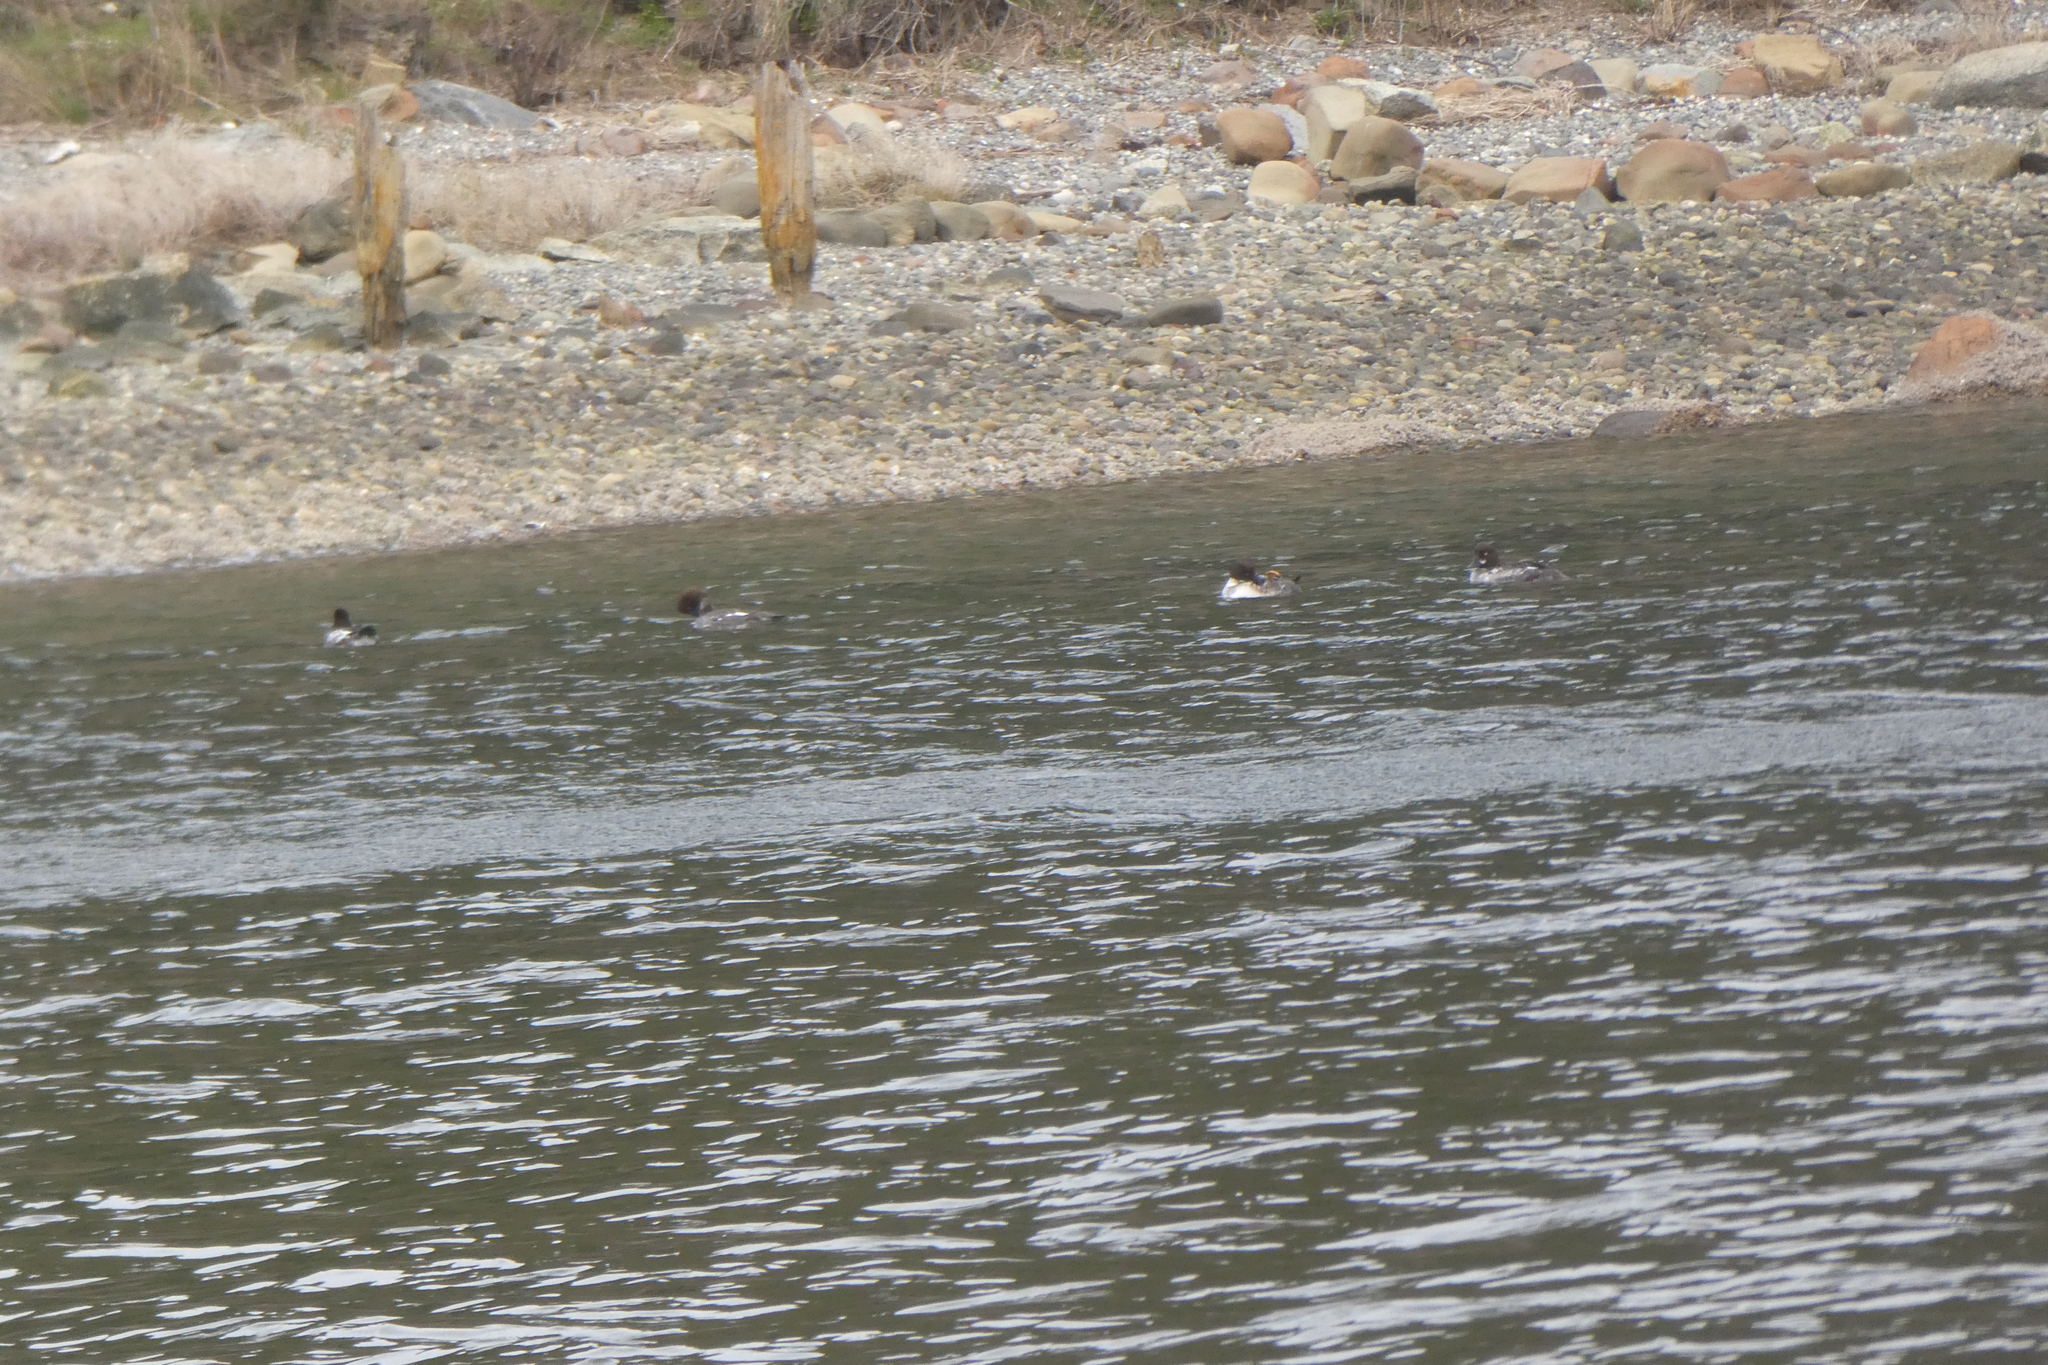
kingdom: Animalia
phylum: Chordata
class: Aves
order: Anseriformes
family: Anatidae
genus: Bucephala
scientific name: Bucephala clangula
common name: Common goldeneye
